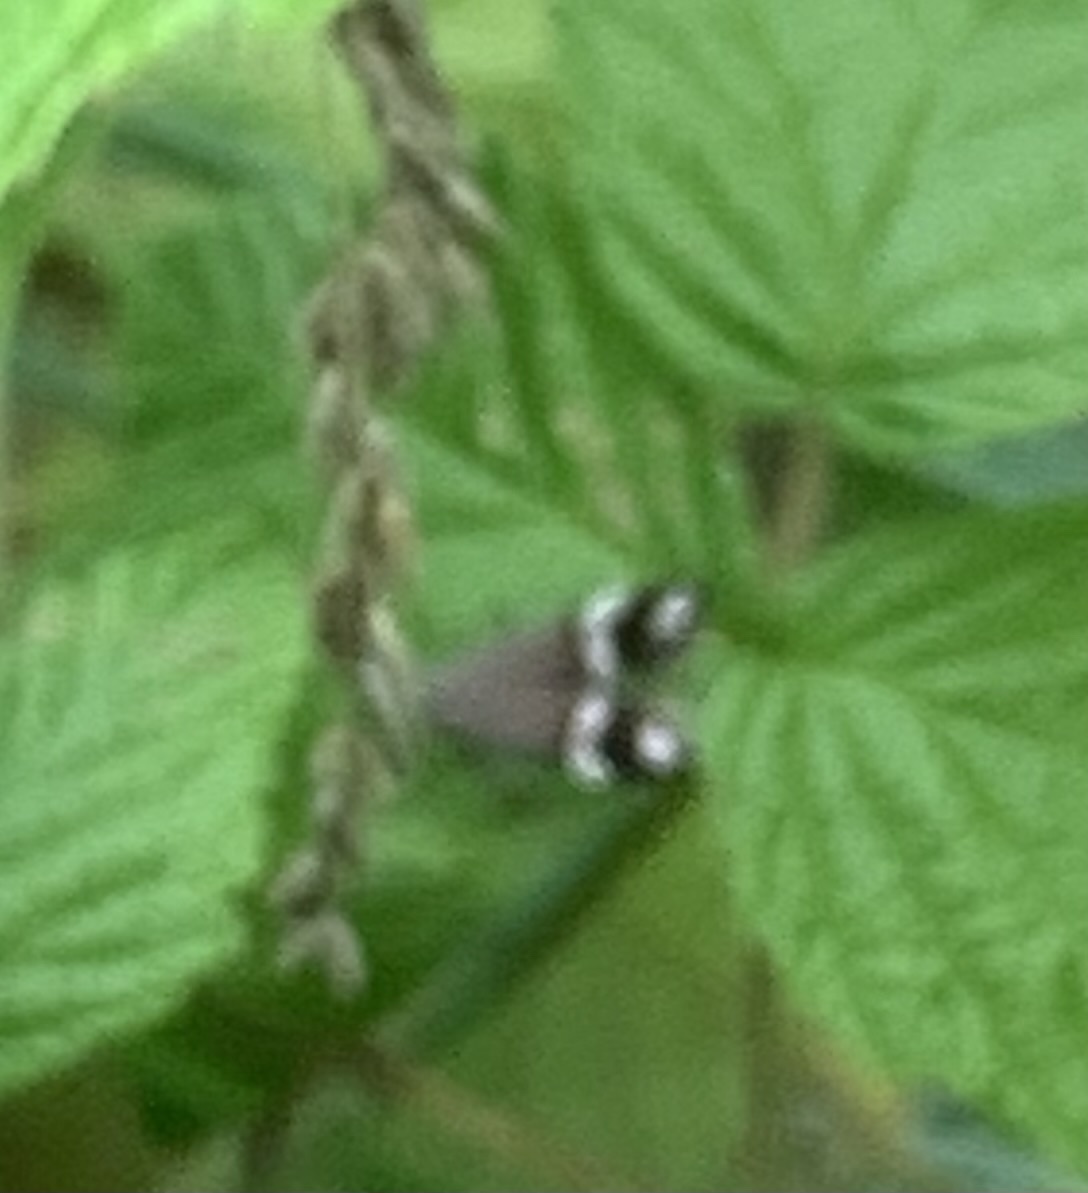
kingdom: Animalia
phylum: Arthropoda
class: Insecta
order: Lepidoptera
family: Gelechiidae
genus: Anacampsis
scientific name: Anacampsis agrimoniella
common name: Agrimony anacampsis moth
